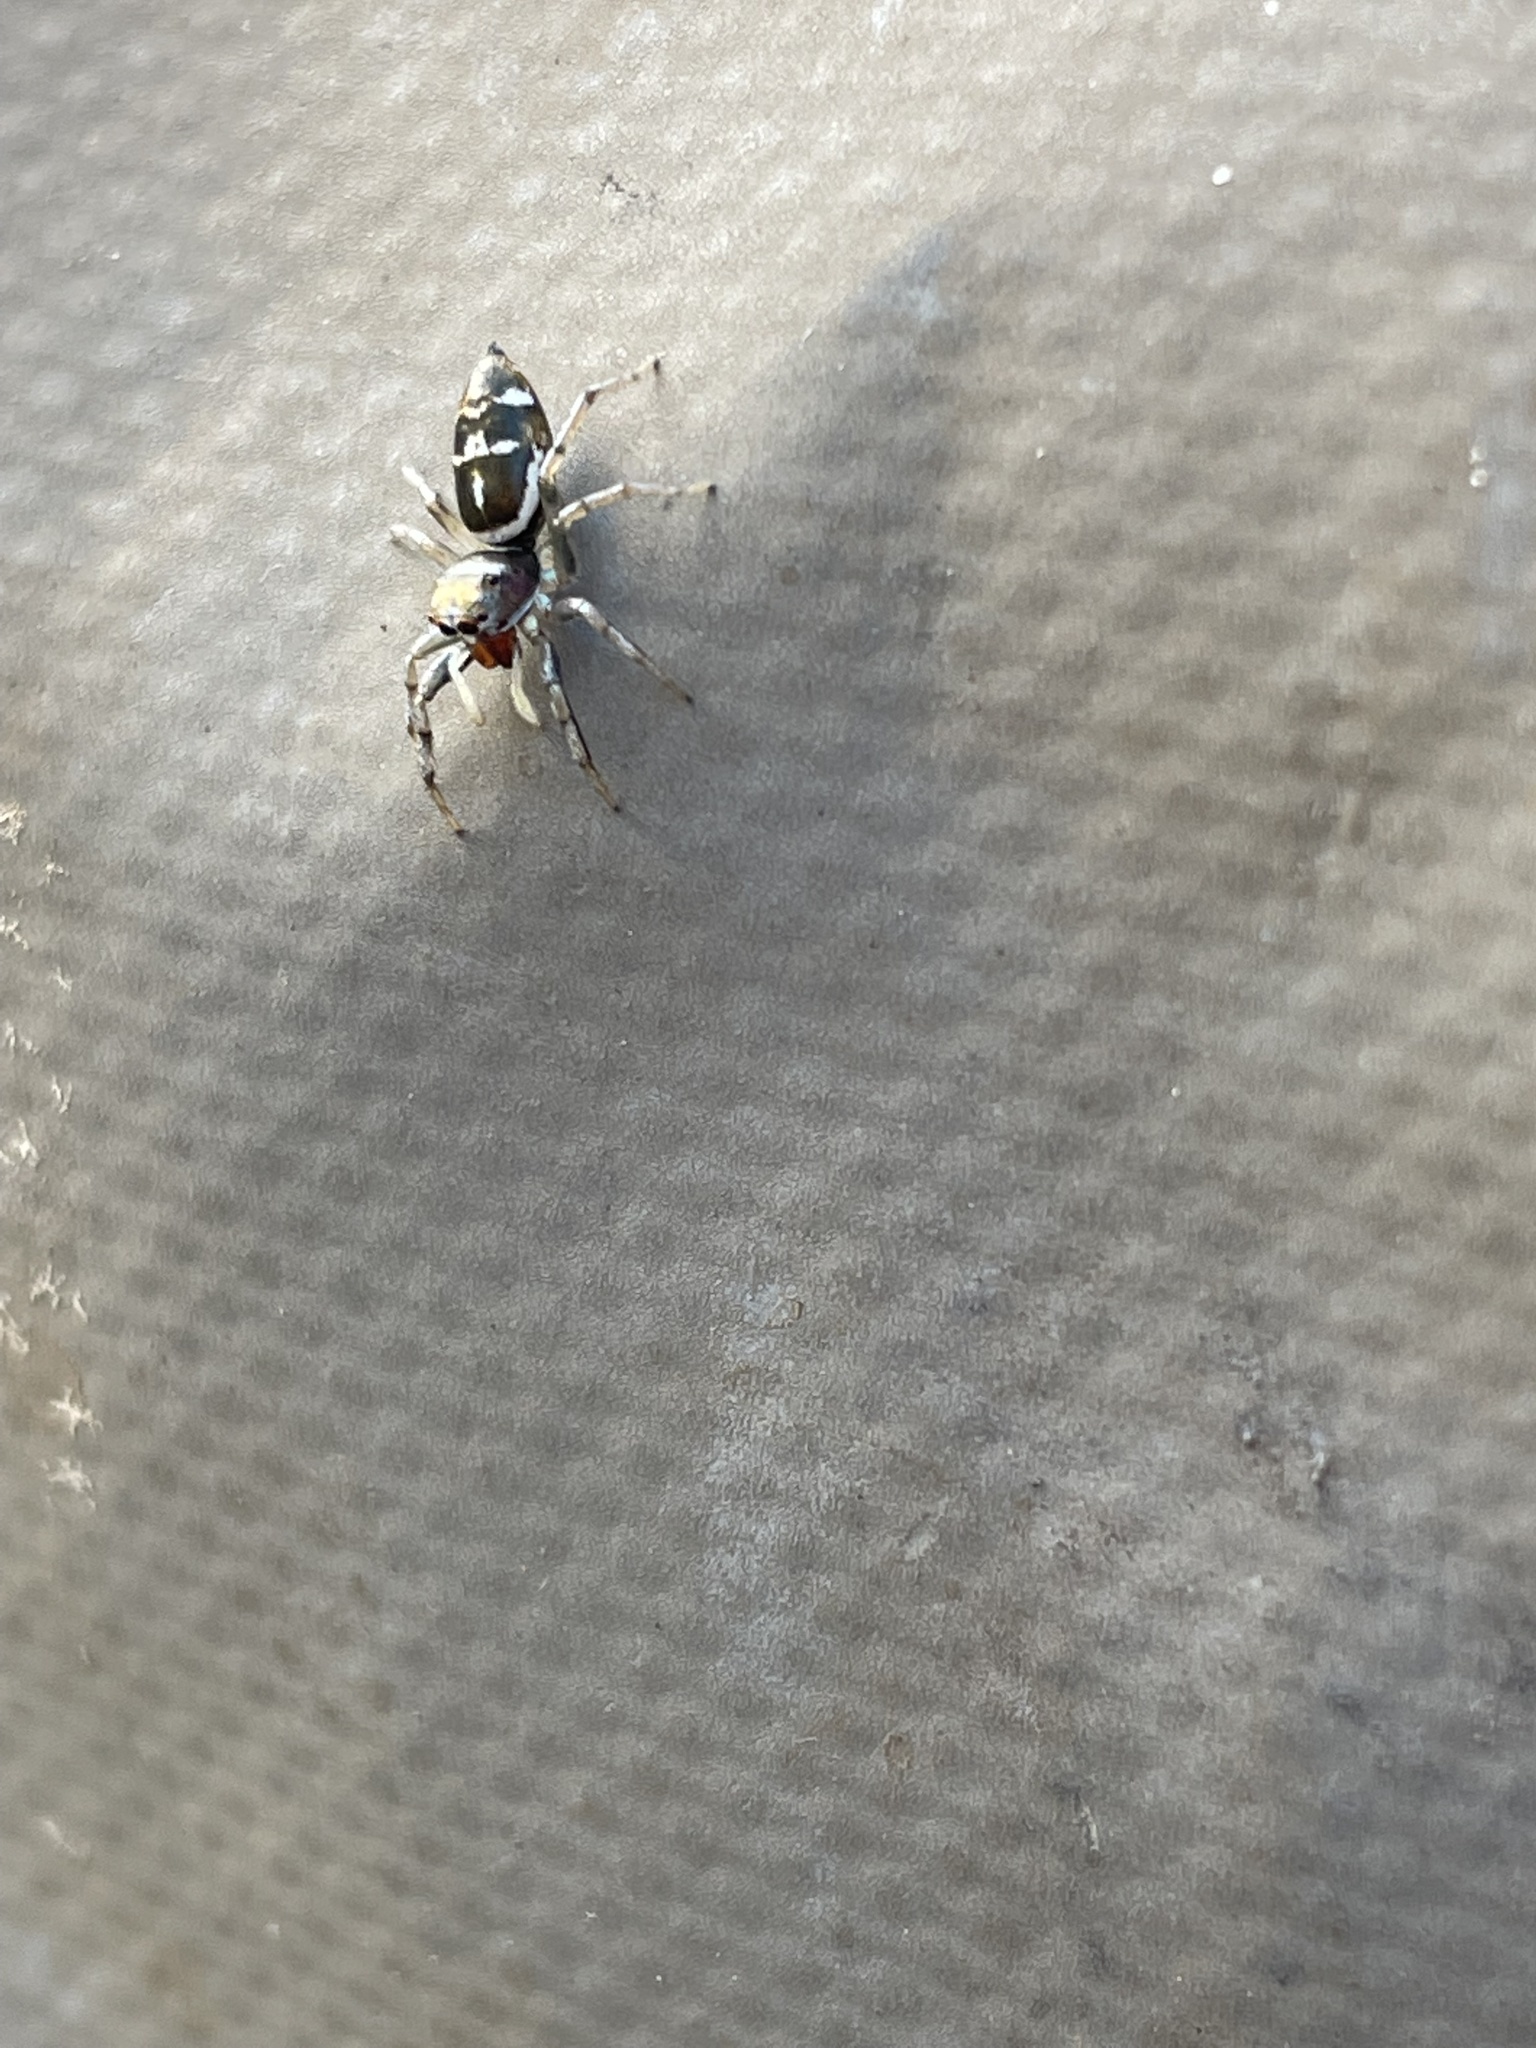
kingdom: Animalia
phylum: Arthropoda
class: Arachnida
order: Araneae
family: Salticidae
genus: Cosmophasis
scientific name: Cosmophasis baehrae
